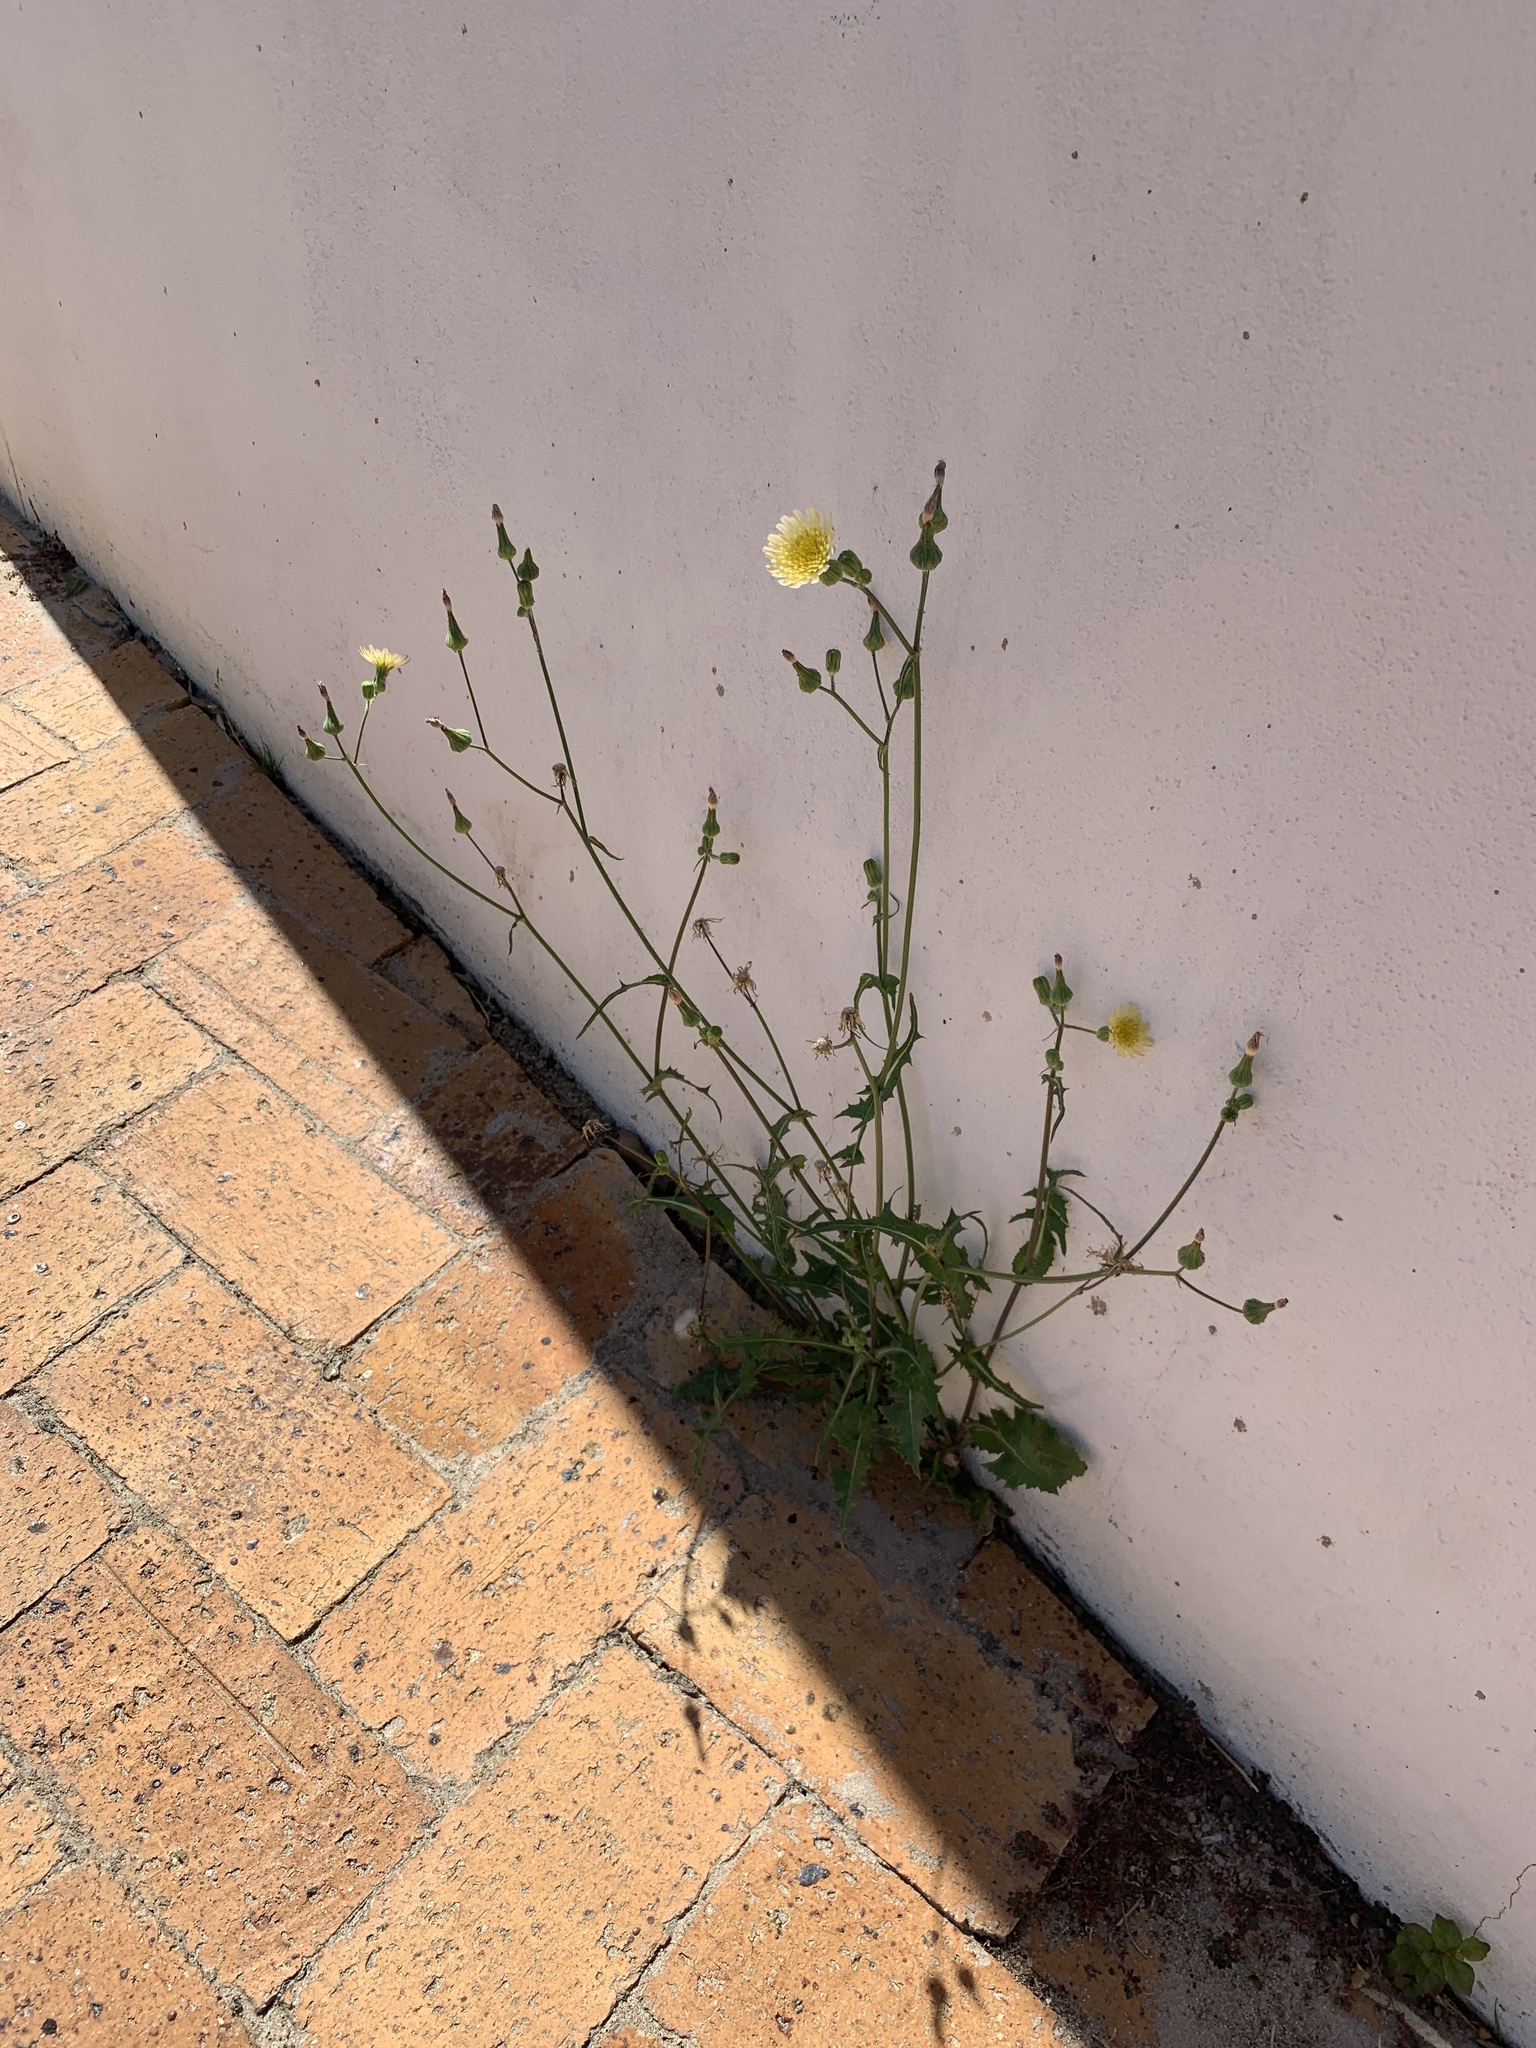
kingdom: Plantae
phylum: Tracheophyta
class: Magnoliopsida
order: Asterales
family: Asteraceae
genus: Sonchus
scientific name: Sonchus oleraceus
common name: Common sowthistle
